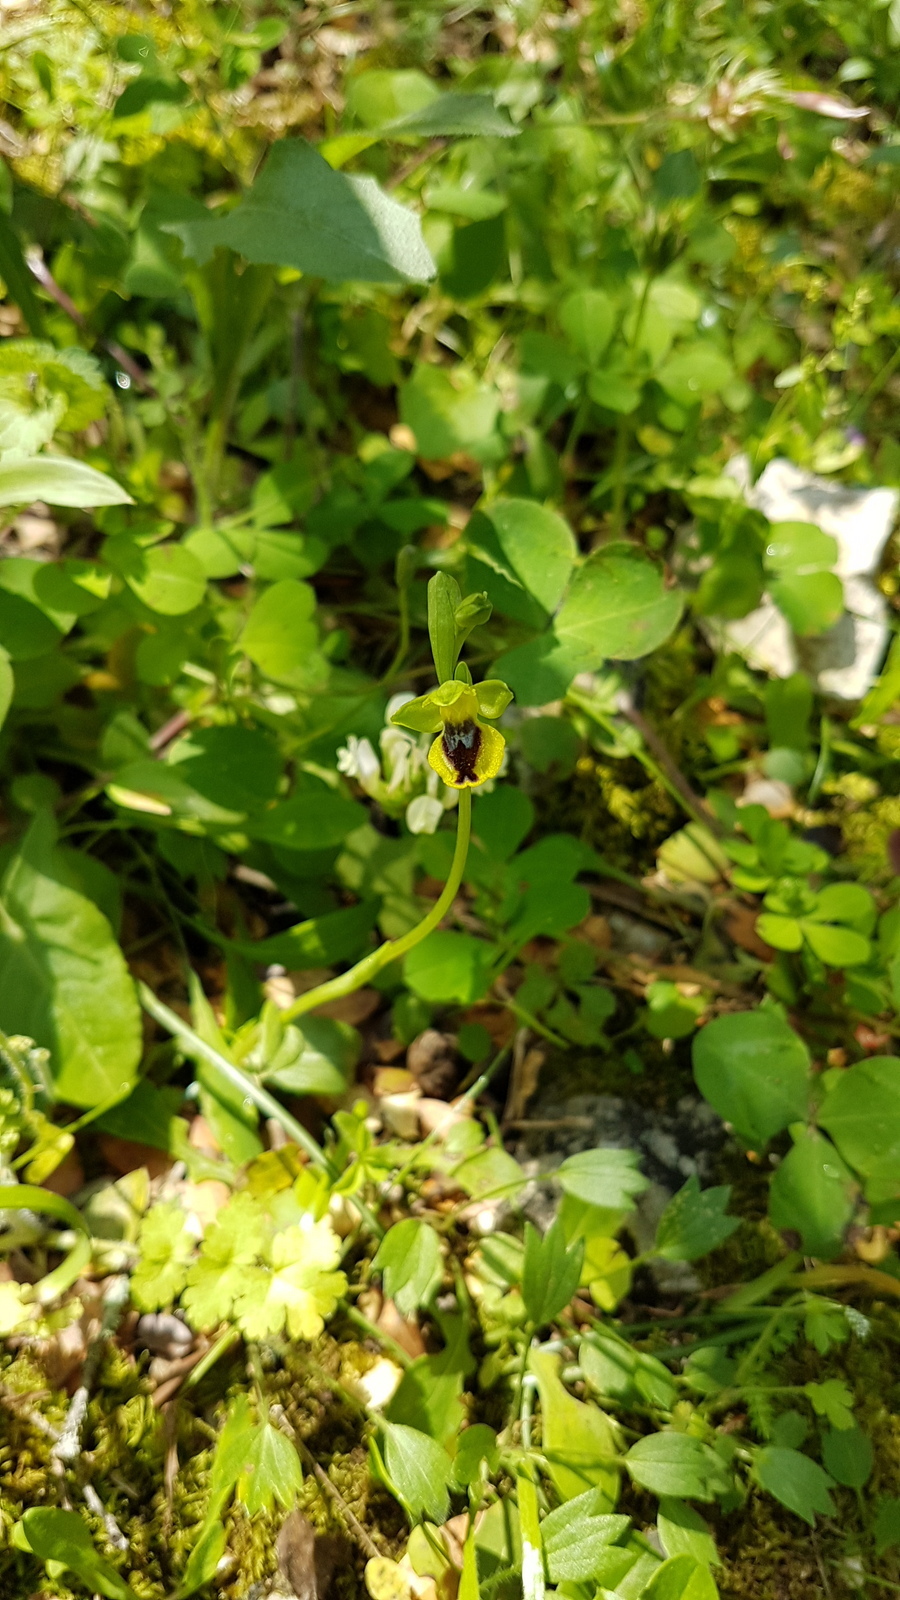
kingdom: Plantae
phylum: Tracheophyta
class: Liliopsida
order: Asparagales
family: Orchidaceae
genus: Ophrys
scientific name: Ophrys lutea
